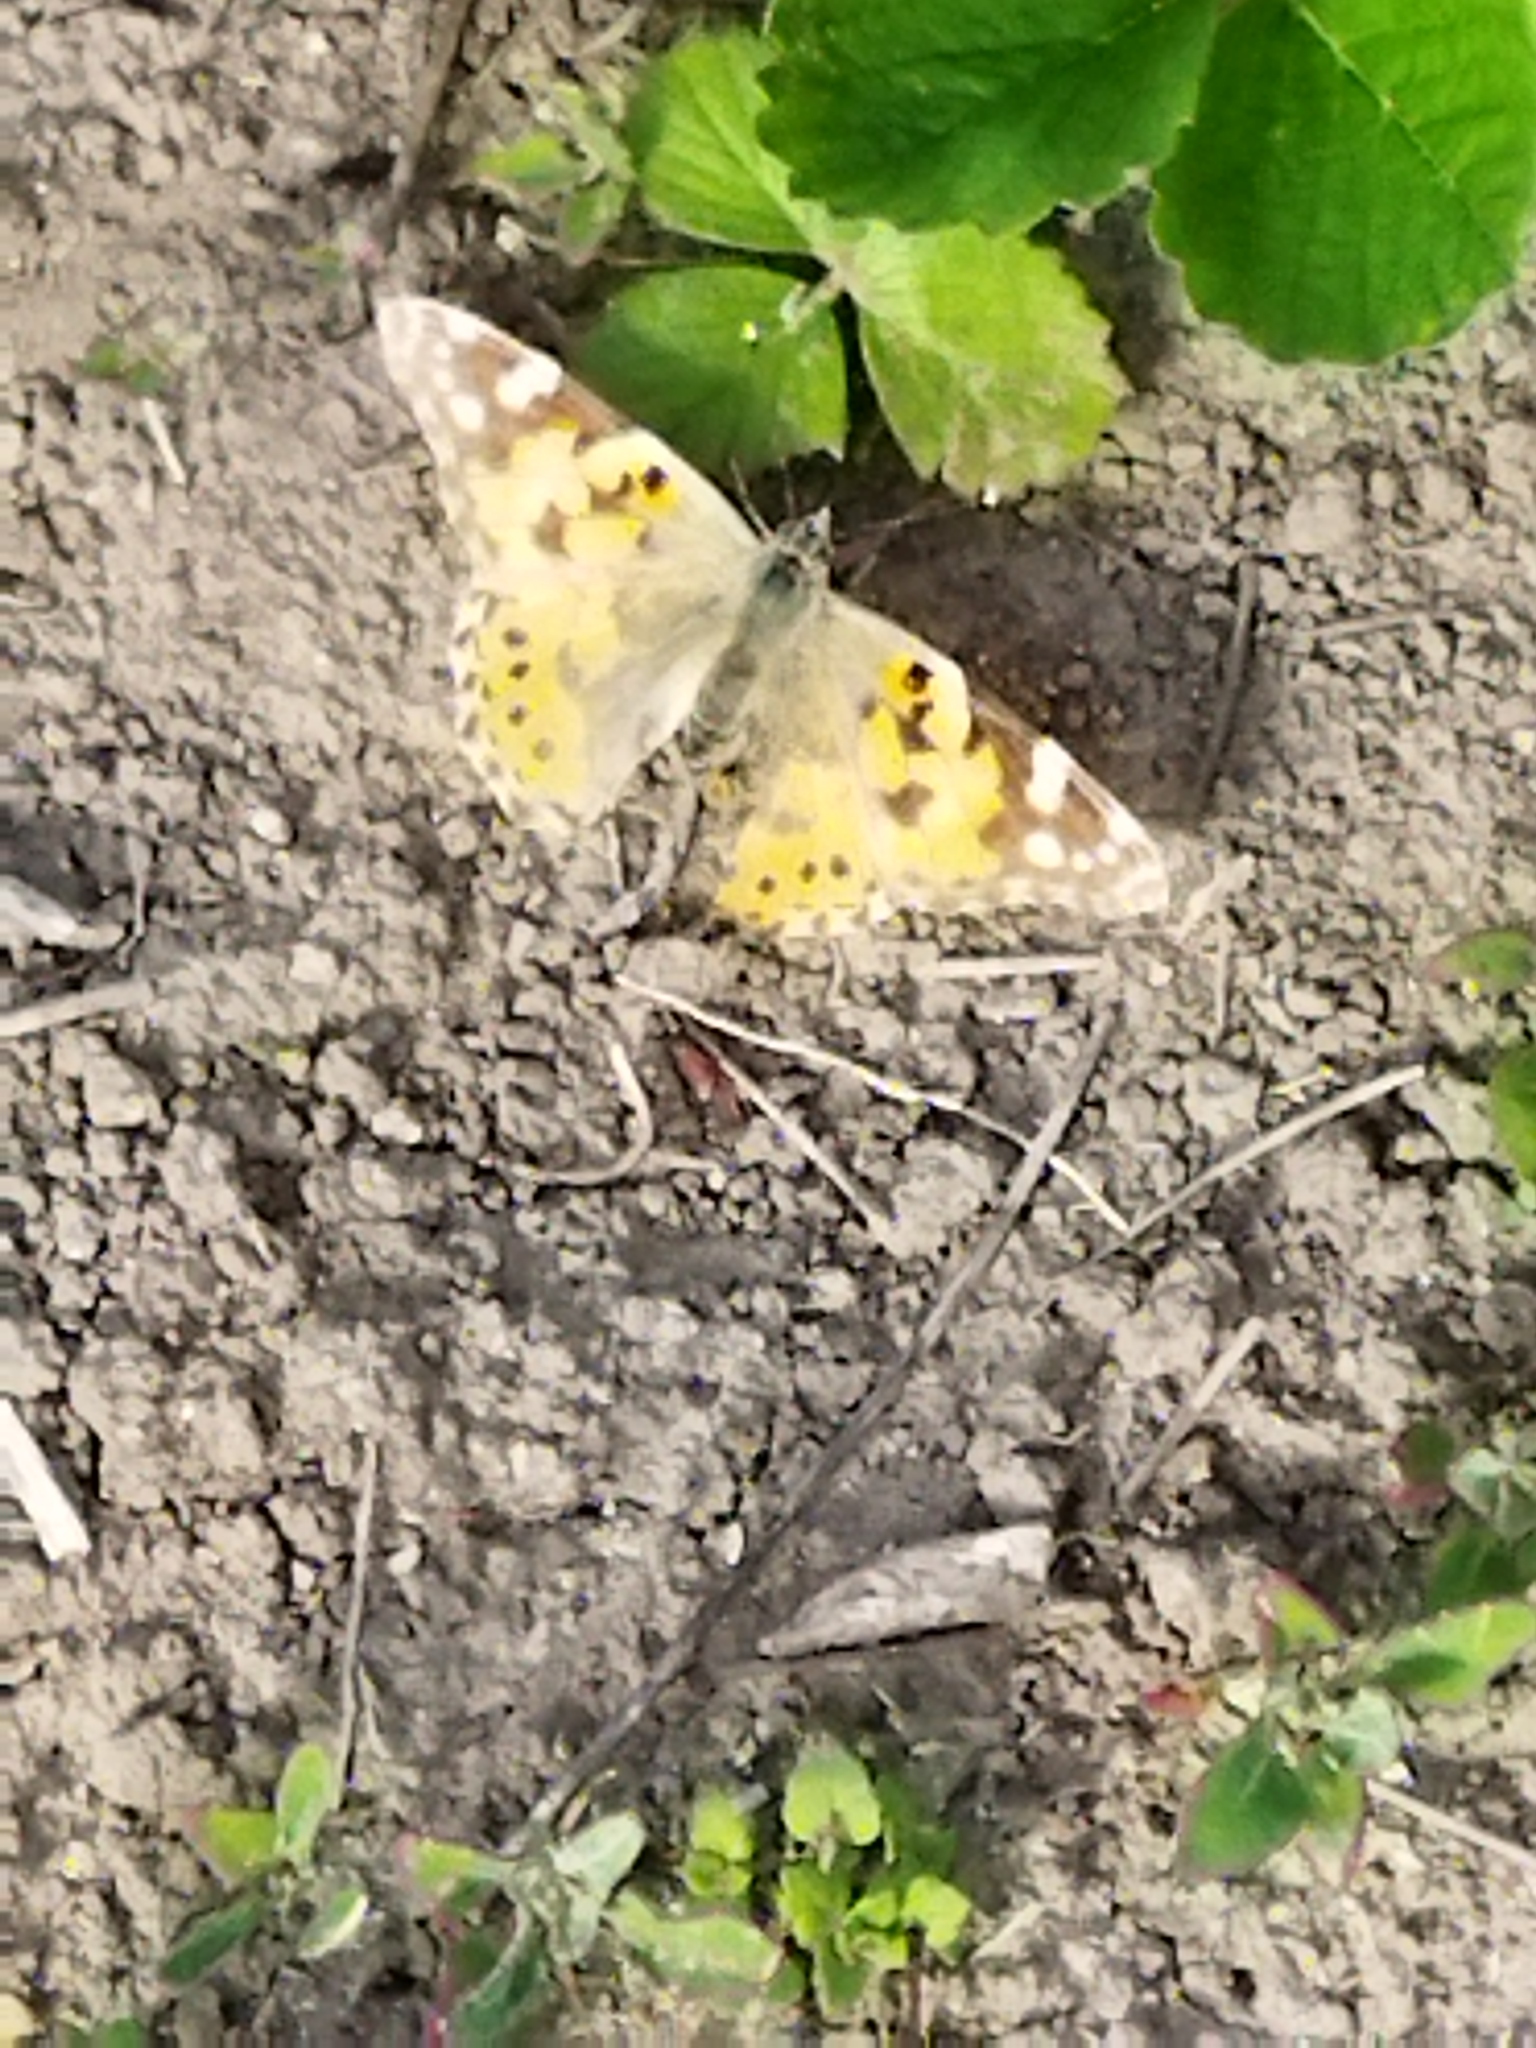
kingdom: Animalia
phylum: Arthropoda
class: Insecta
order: Lepidoptera
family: Nymphalidae
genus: Vanessa
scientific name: Vanessa cardui
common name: Painted lady
